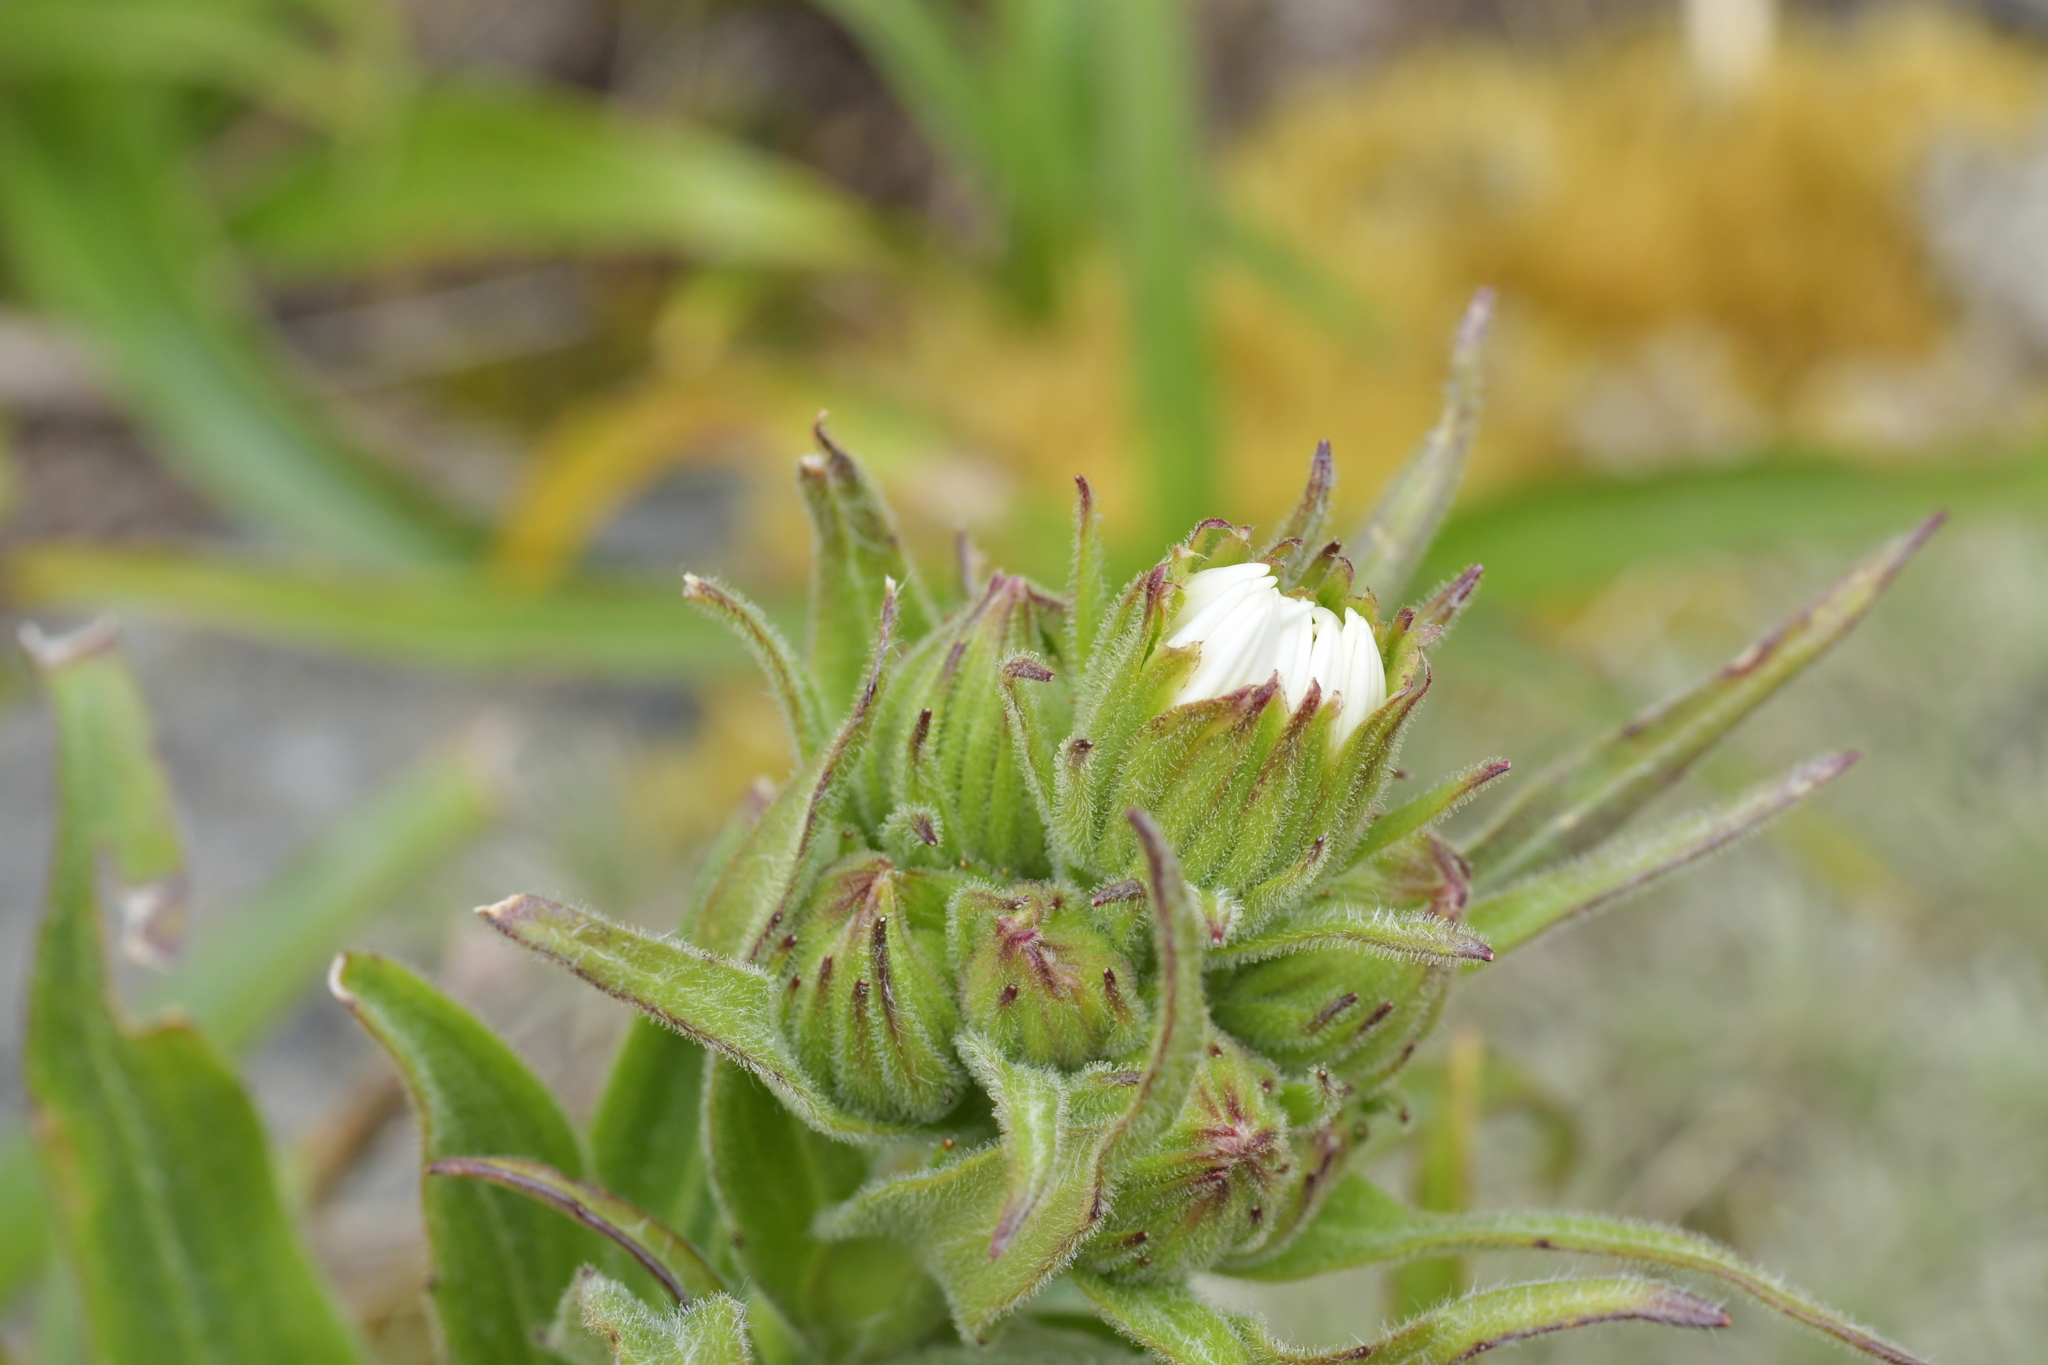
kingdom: Plantae
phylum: Tracheophyta
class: Magnoliopsida
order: Asterales
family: Asteraceae
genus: Dolichoglottis
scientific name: Dolichoglottis scorzoneroides
